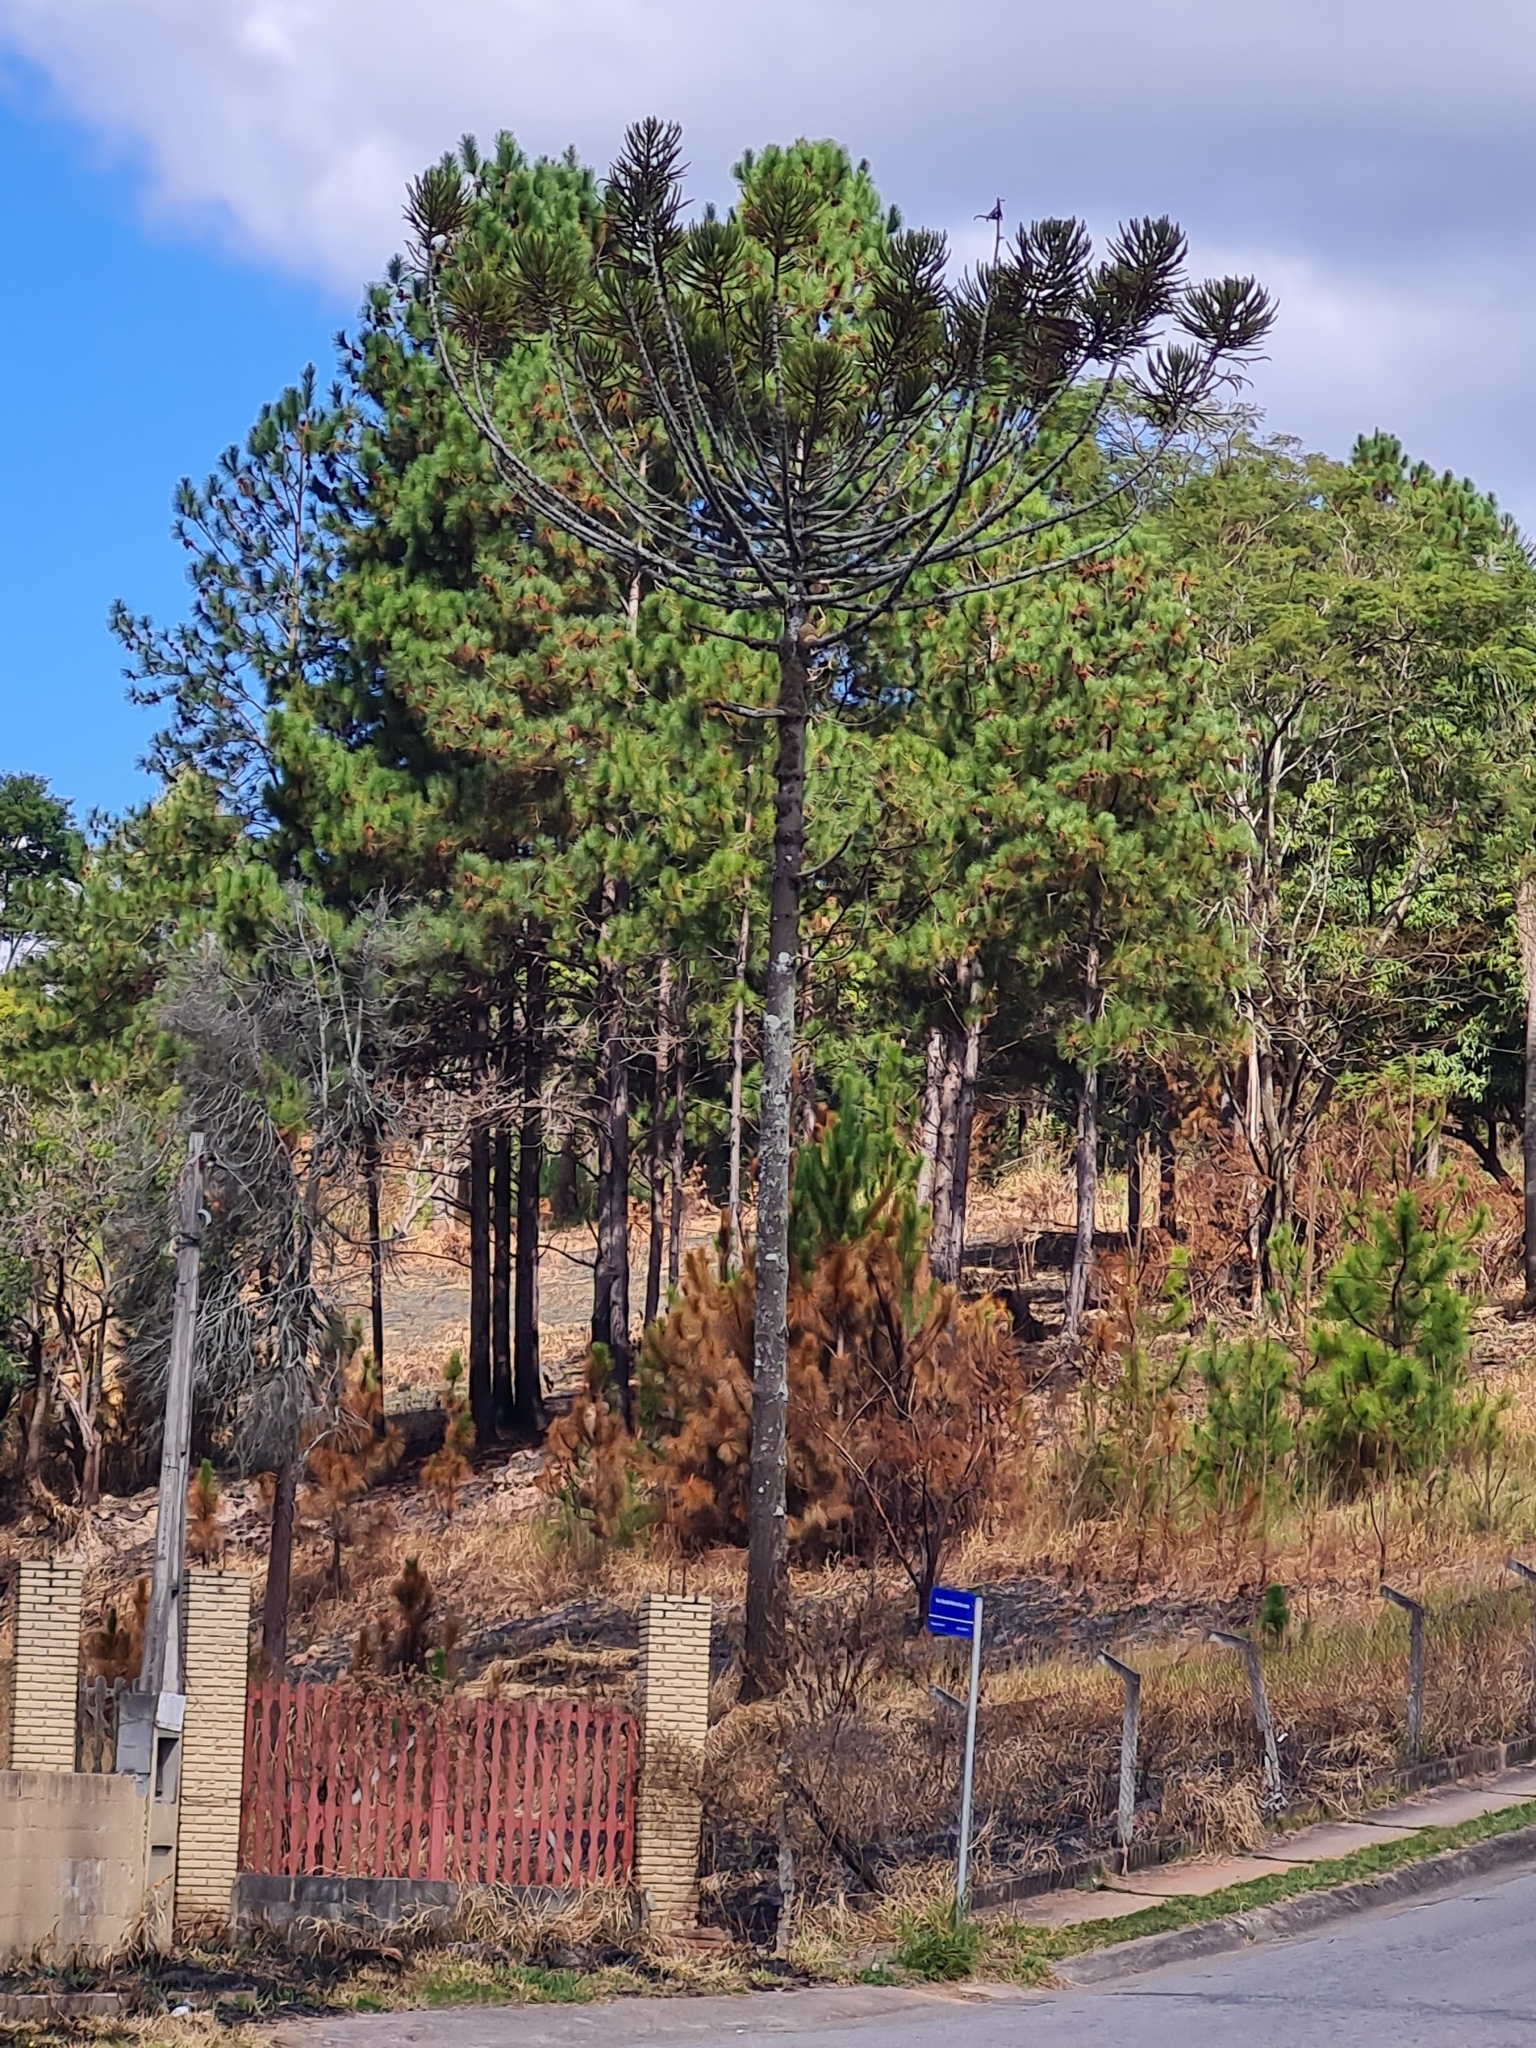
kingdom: Plantae
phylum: Tracheophyta
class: Pinopsida
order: Pinales
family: Araucariaceae
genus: Araucaria
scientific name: Araucaria angustifolia
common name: Candelabra tree
